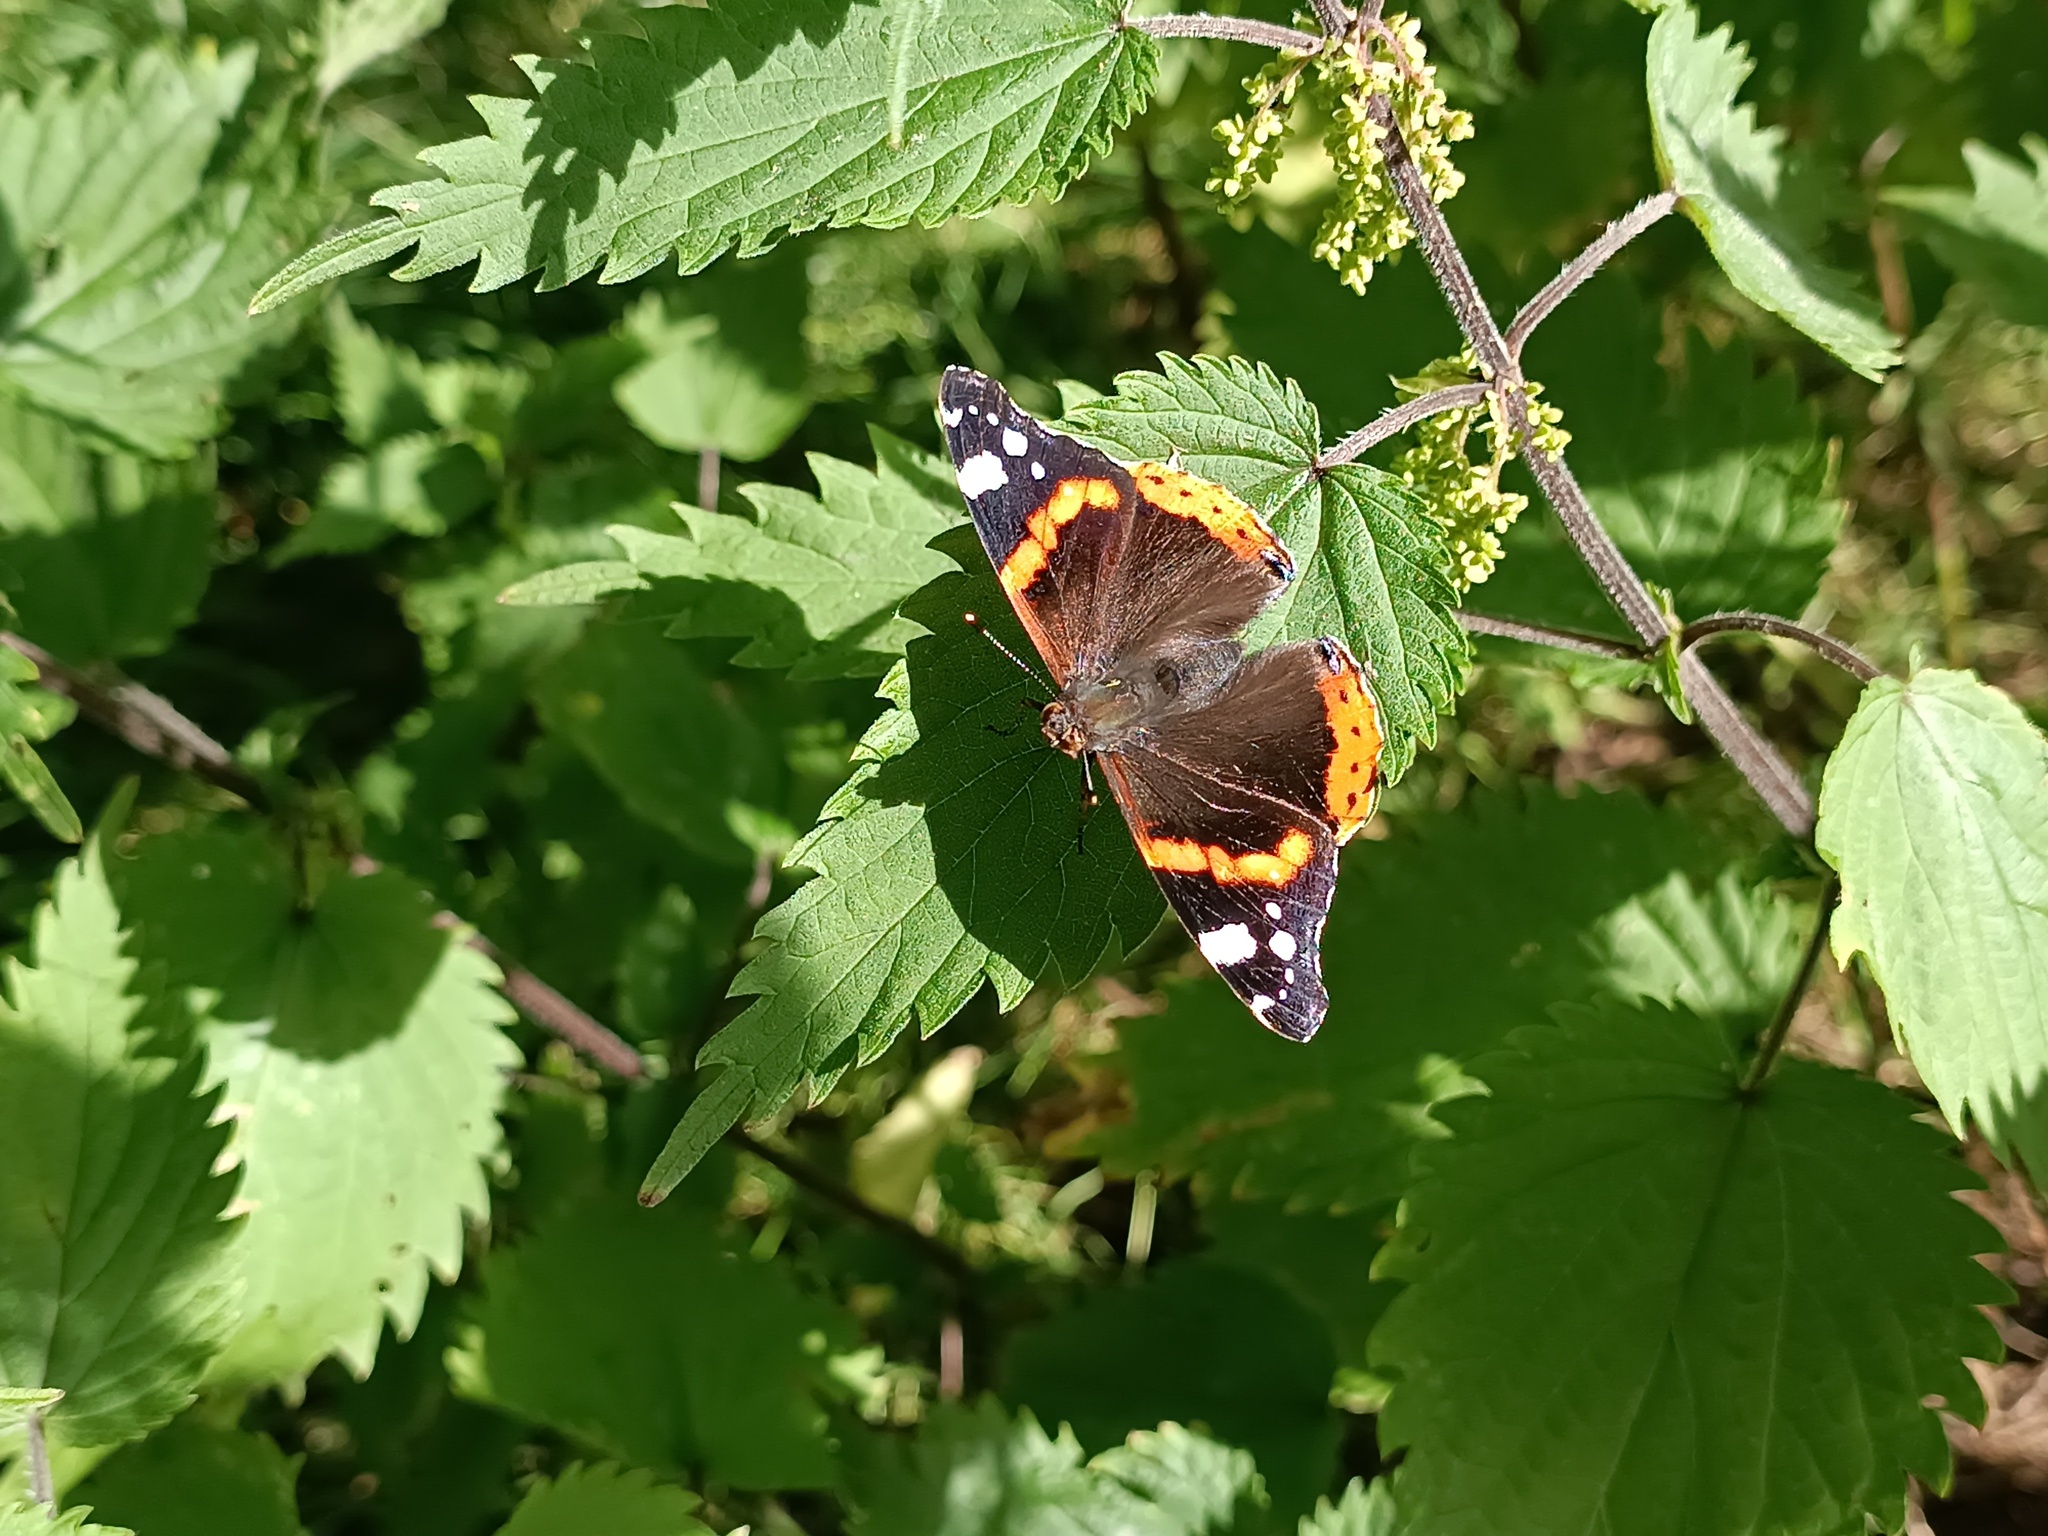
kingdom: Animalia
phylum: Arthropoda
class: Insecta
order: Lepidoptera
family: Nymphalidae
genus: Vanessa
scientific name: Vanessa atalanta
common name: Red admiral
